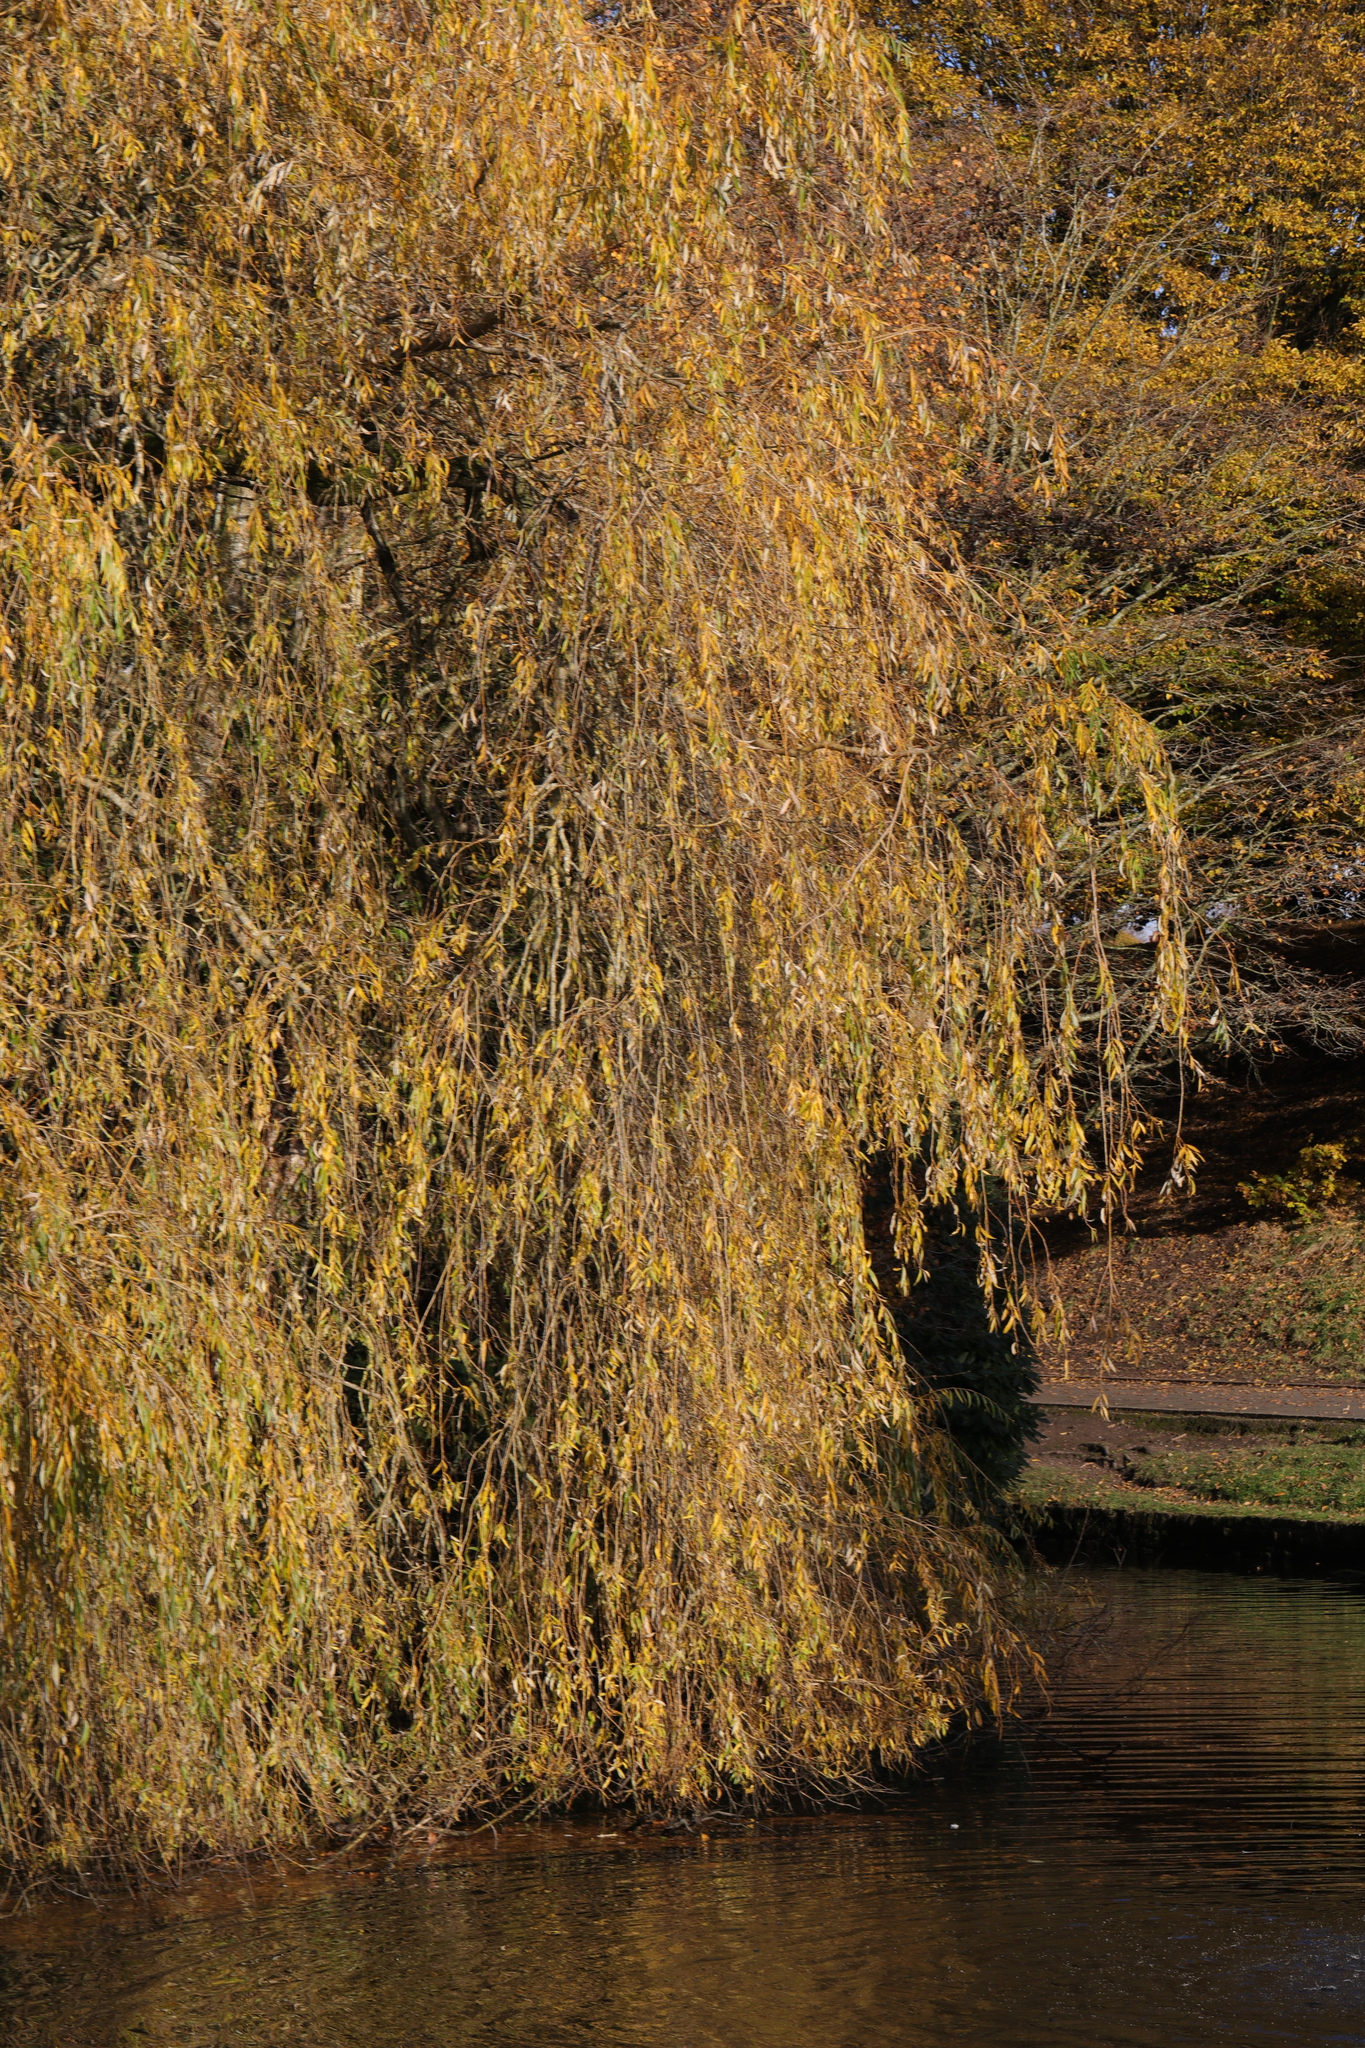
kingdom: Plantae
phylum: Tracheophyta
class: Magnoliopsida
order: Malpighiales
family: Salicaceae
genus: Salix
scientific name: Salix pendulina
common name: Wisconsin weeping willow
